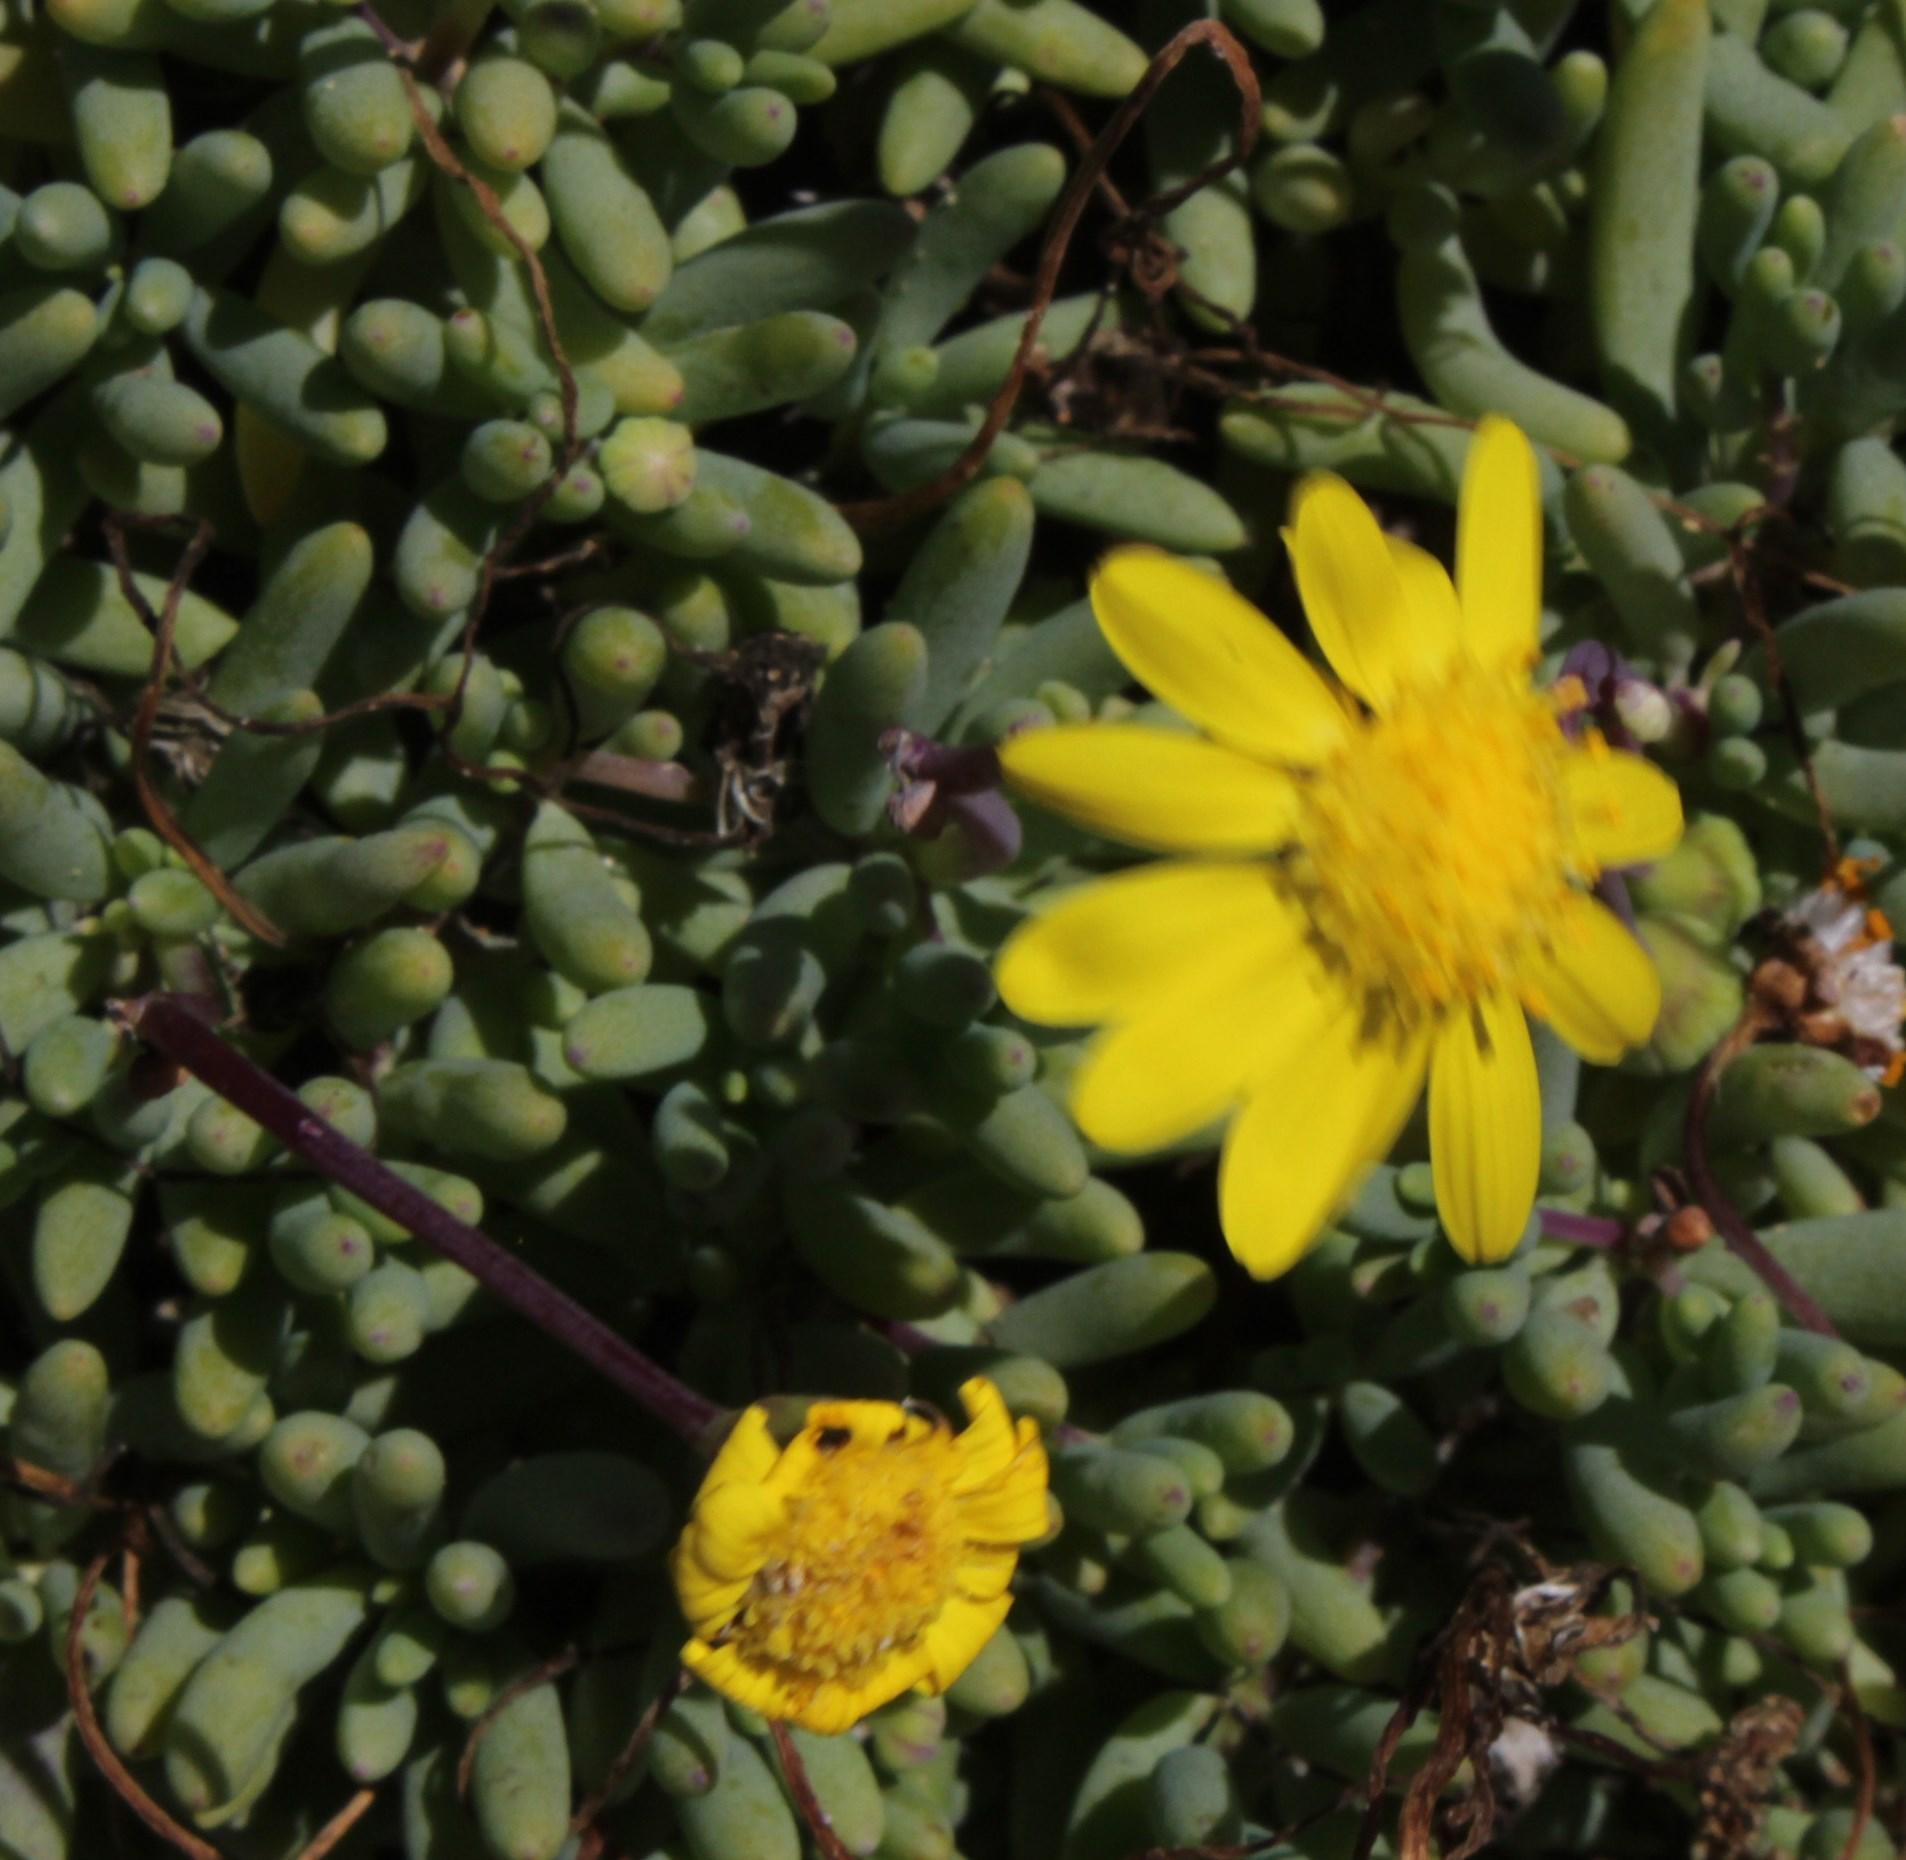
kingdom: Plantae
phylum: Tracheophyta
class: Magnoliopsida
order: Asterales
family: Asteraceae
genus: Crassothonna
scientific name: Crassothonna cylindrica
